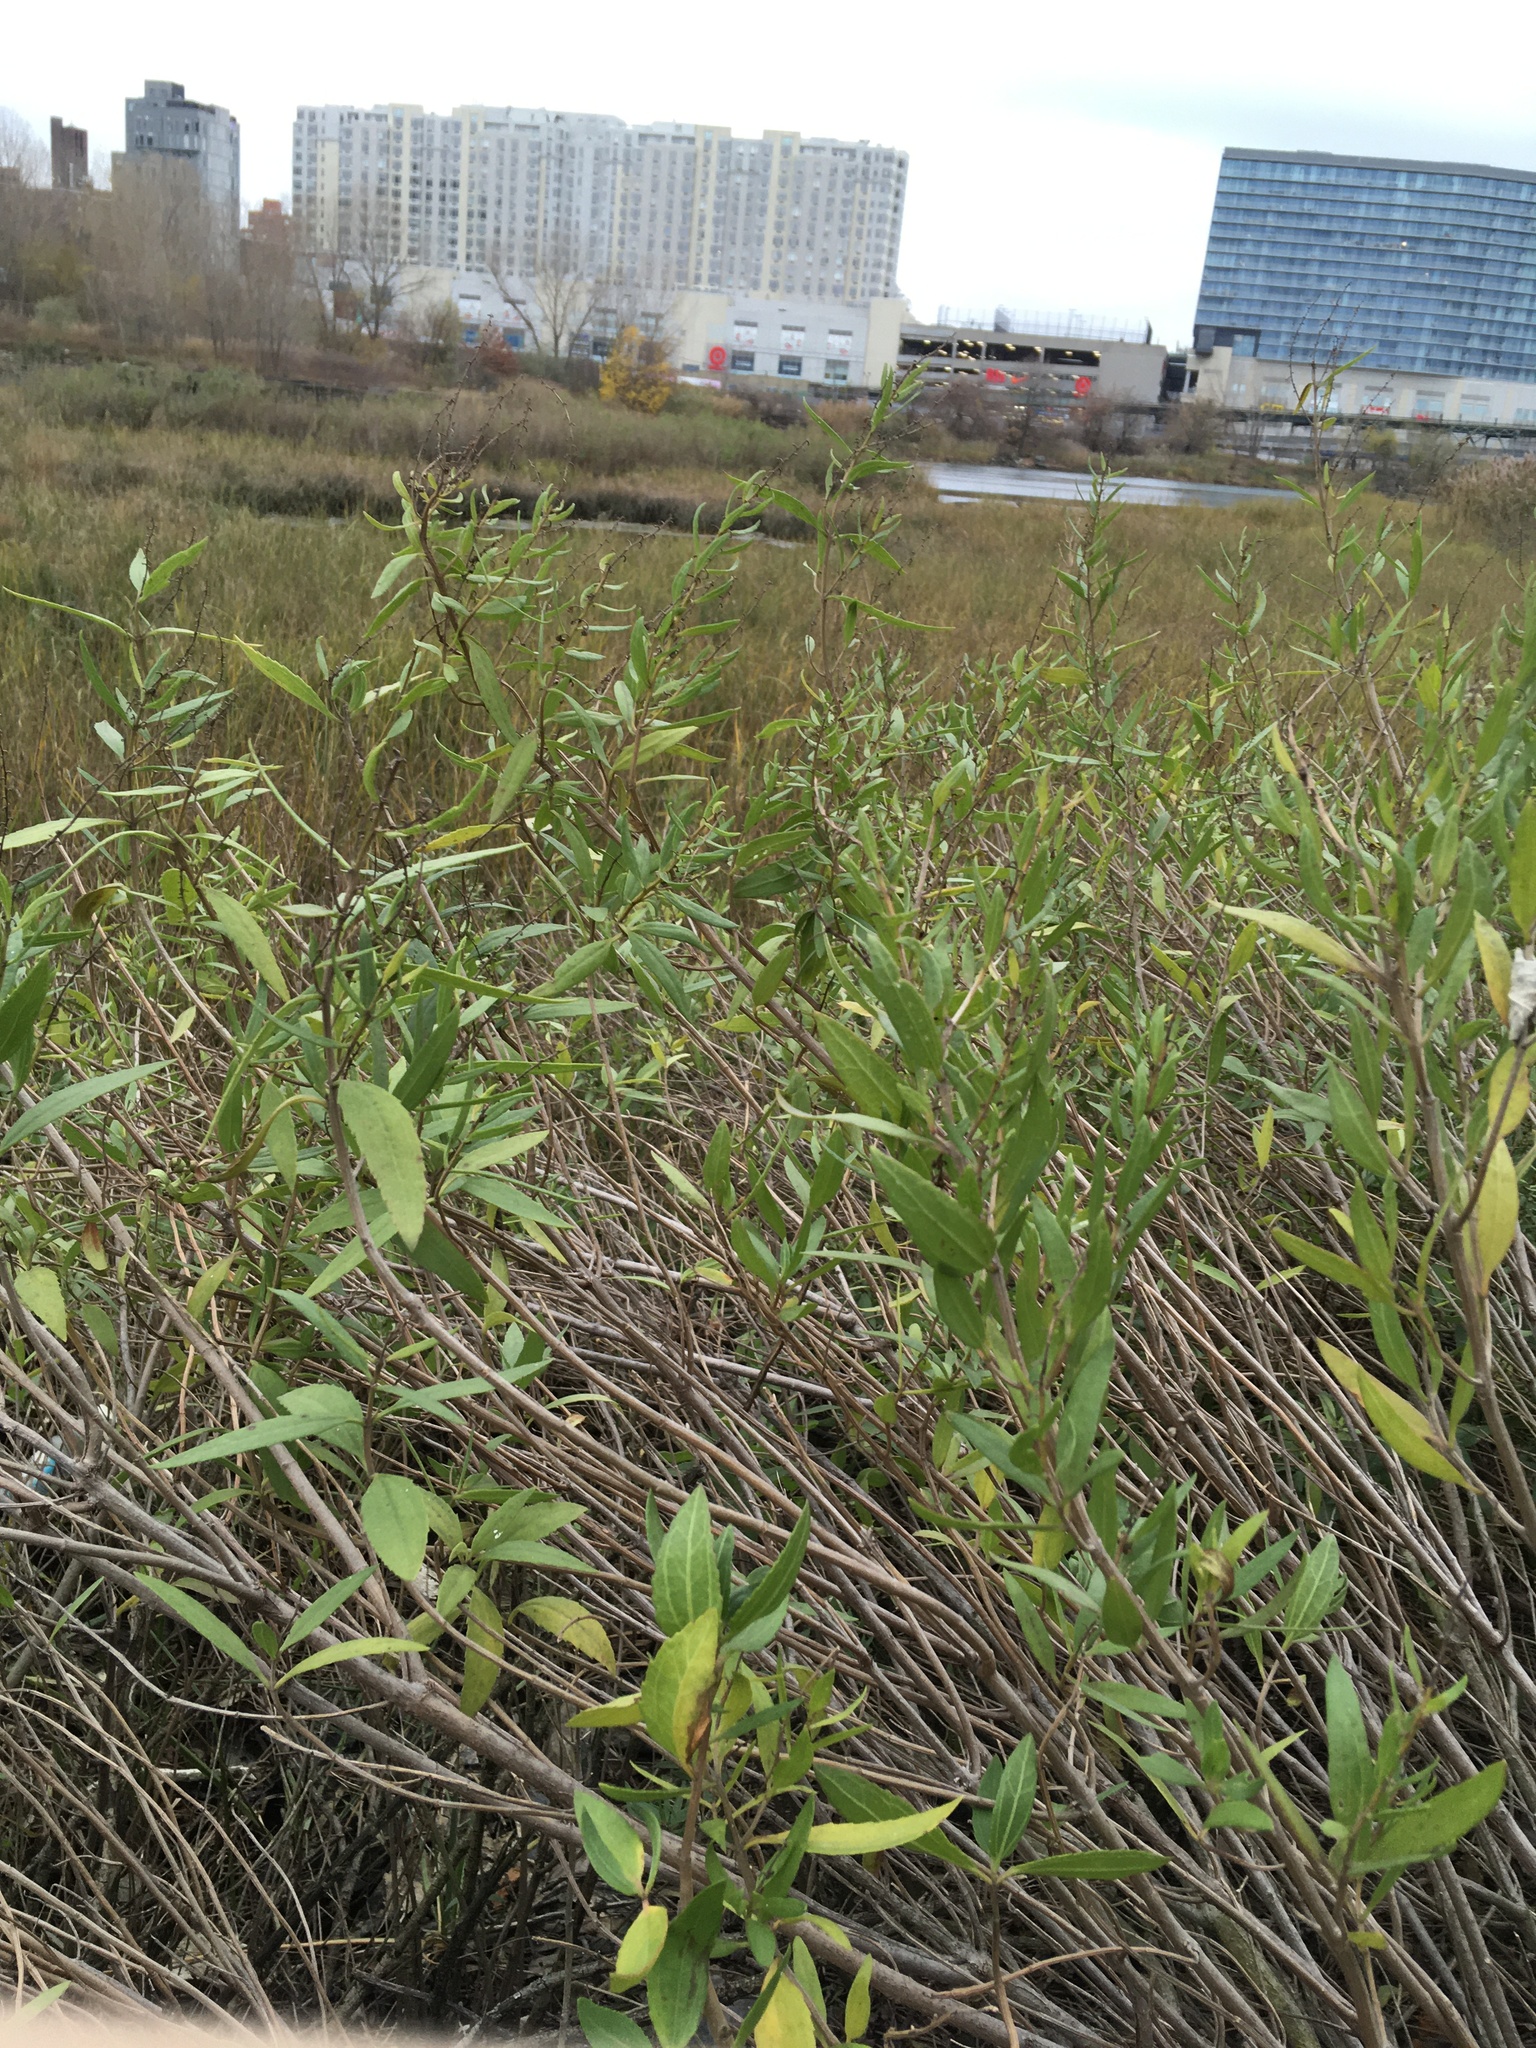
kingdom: Plantae
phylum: Tracheophyta
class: Magnoliopsida
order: Asterales
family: Asteraceae
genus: Iva
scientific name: Iva frutescens
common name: Big-leaved marsh-elder
